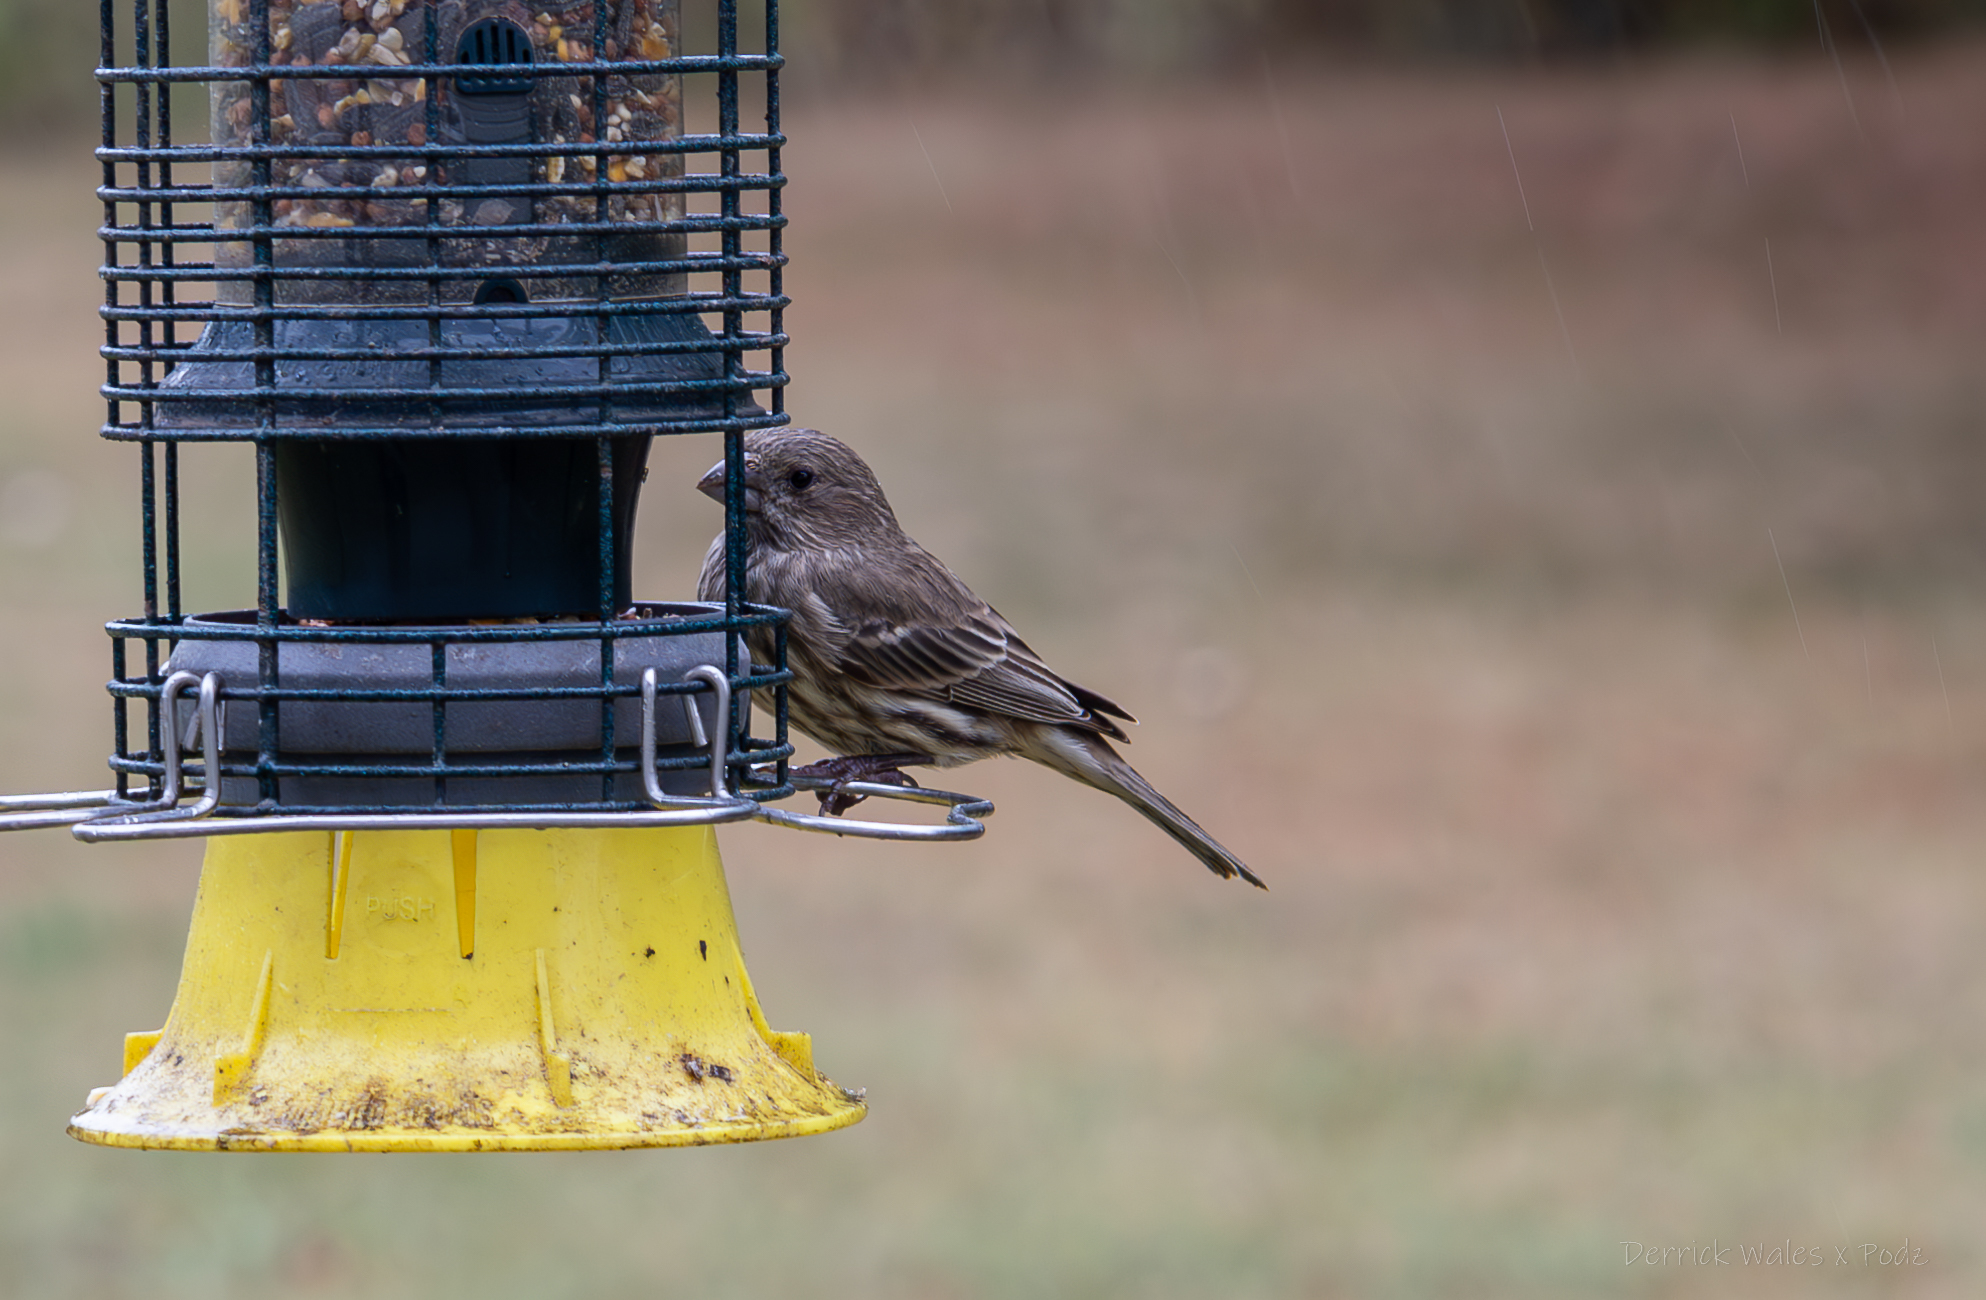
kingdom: Animalia
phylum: Chordata
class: Aves
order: Passeriformes
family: Fringillidae
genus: Haemorhous
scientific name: Haemorhous mexicanus
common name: House finch
